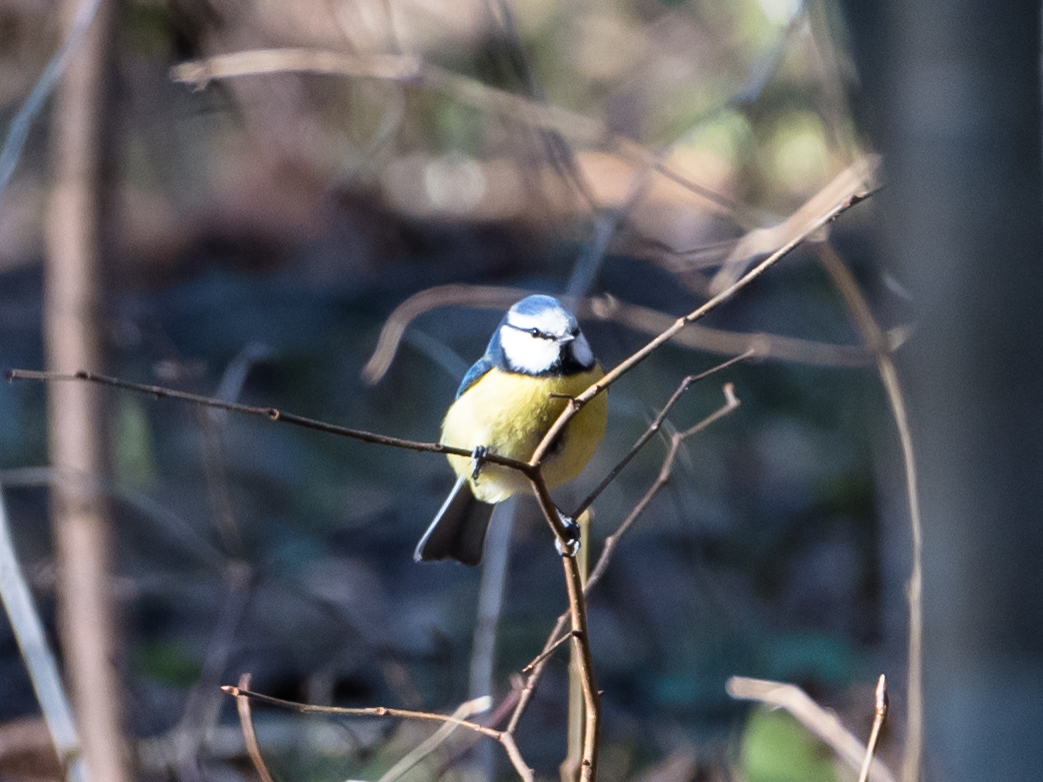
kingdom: Animalia
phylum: Chordata
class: Aves
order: Passeriformes
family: Paridae
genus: Cyanistes
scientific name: Cyanistes caeruleus
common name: Eurasian blue tit
